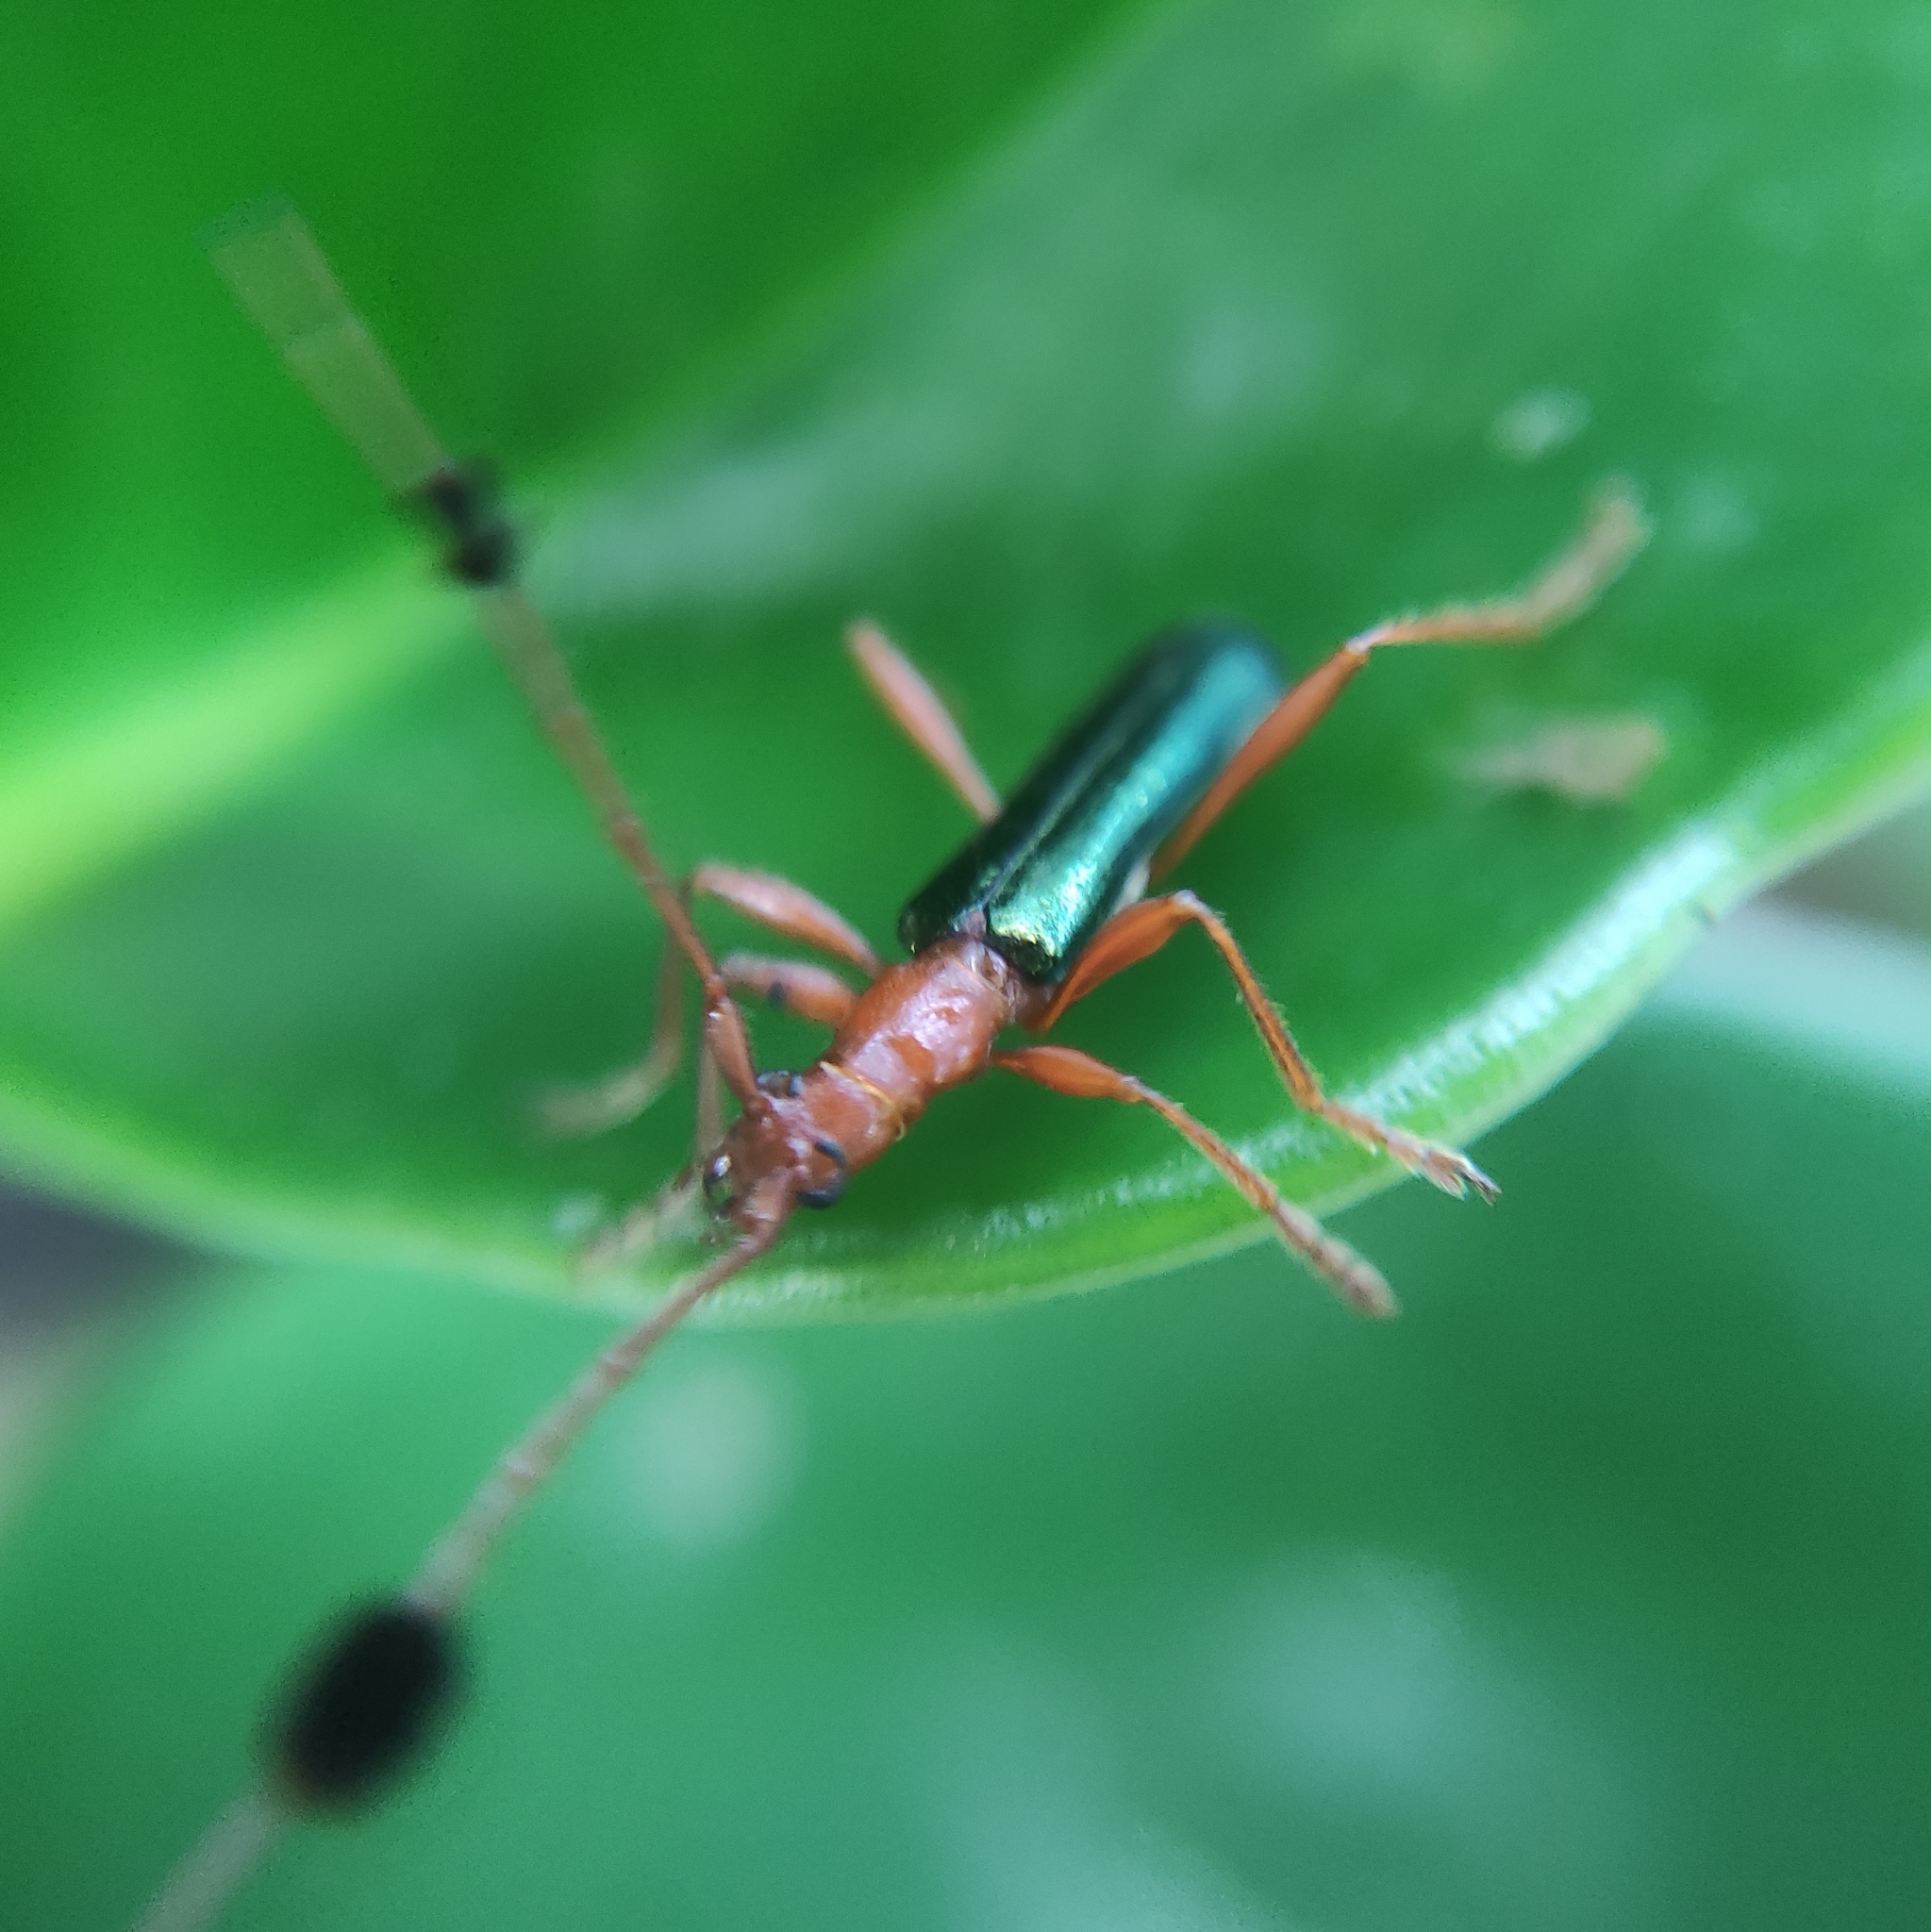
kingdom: Animalia
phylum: Arthropoda
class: Insecta
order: Coleoptera
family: Cerambycidae
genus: Paromoeocerus
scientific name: Paromoeocerus barbicornis
